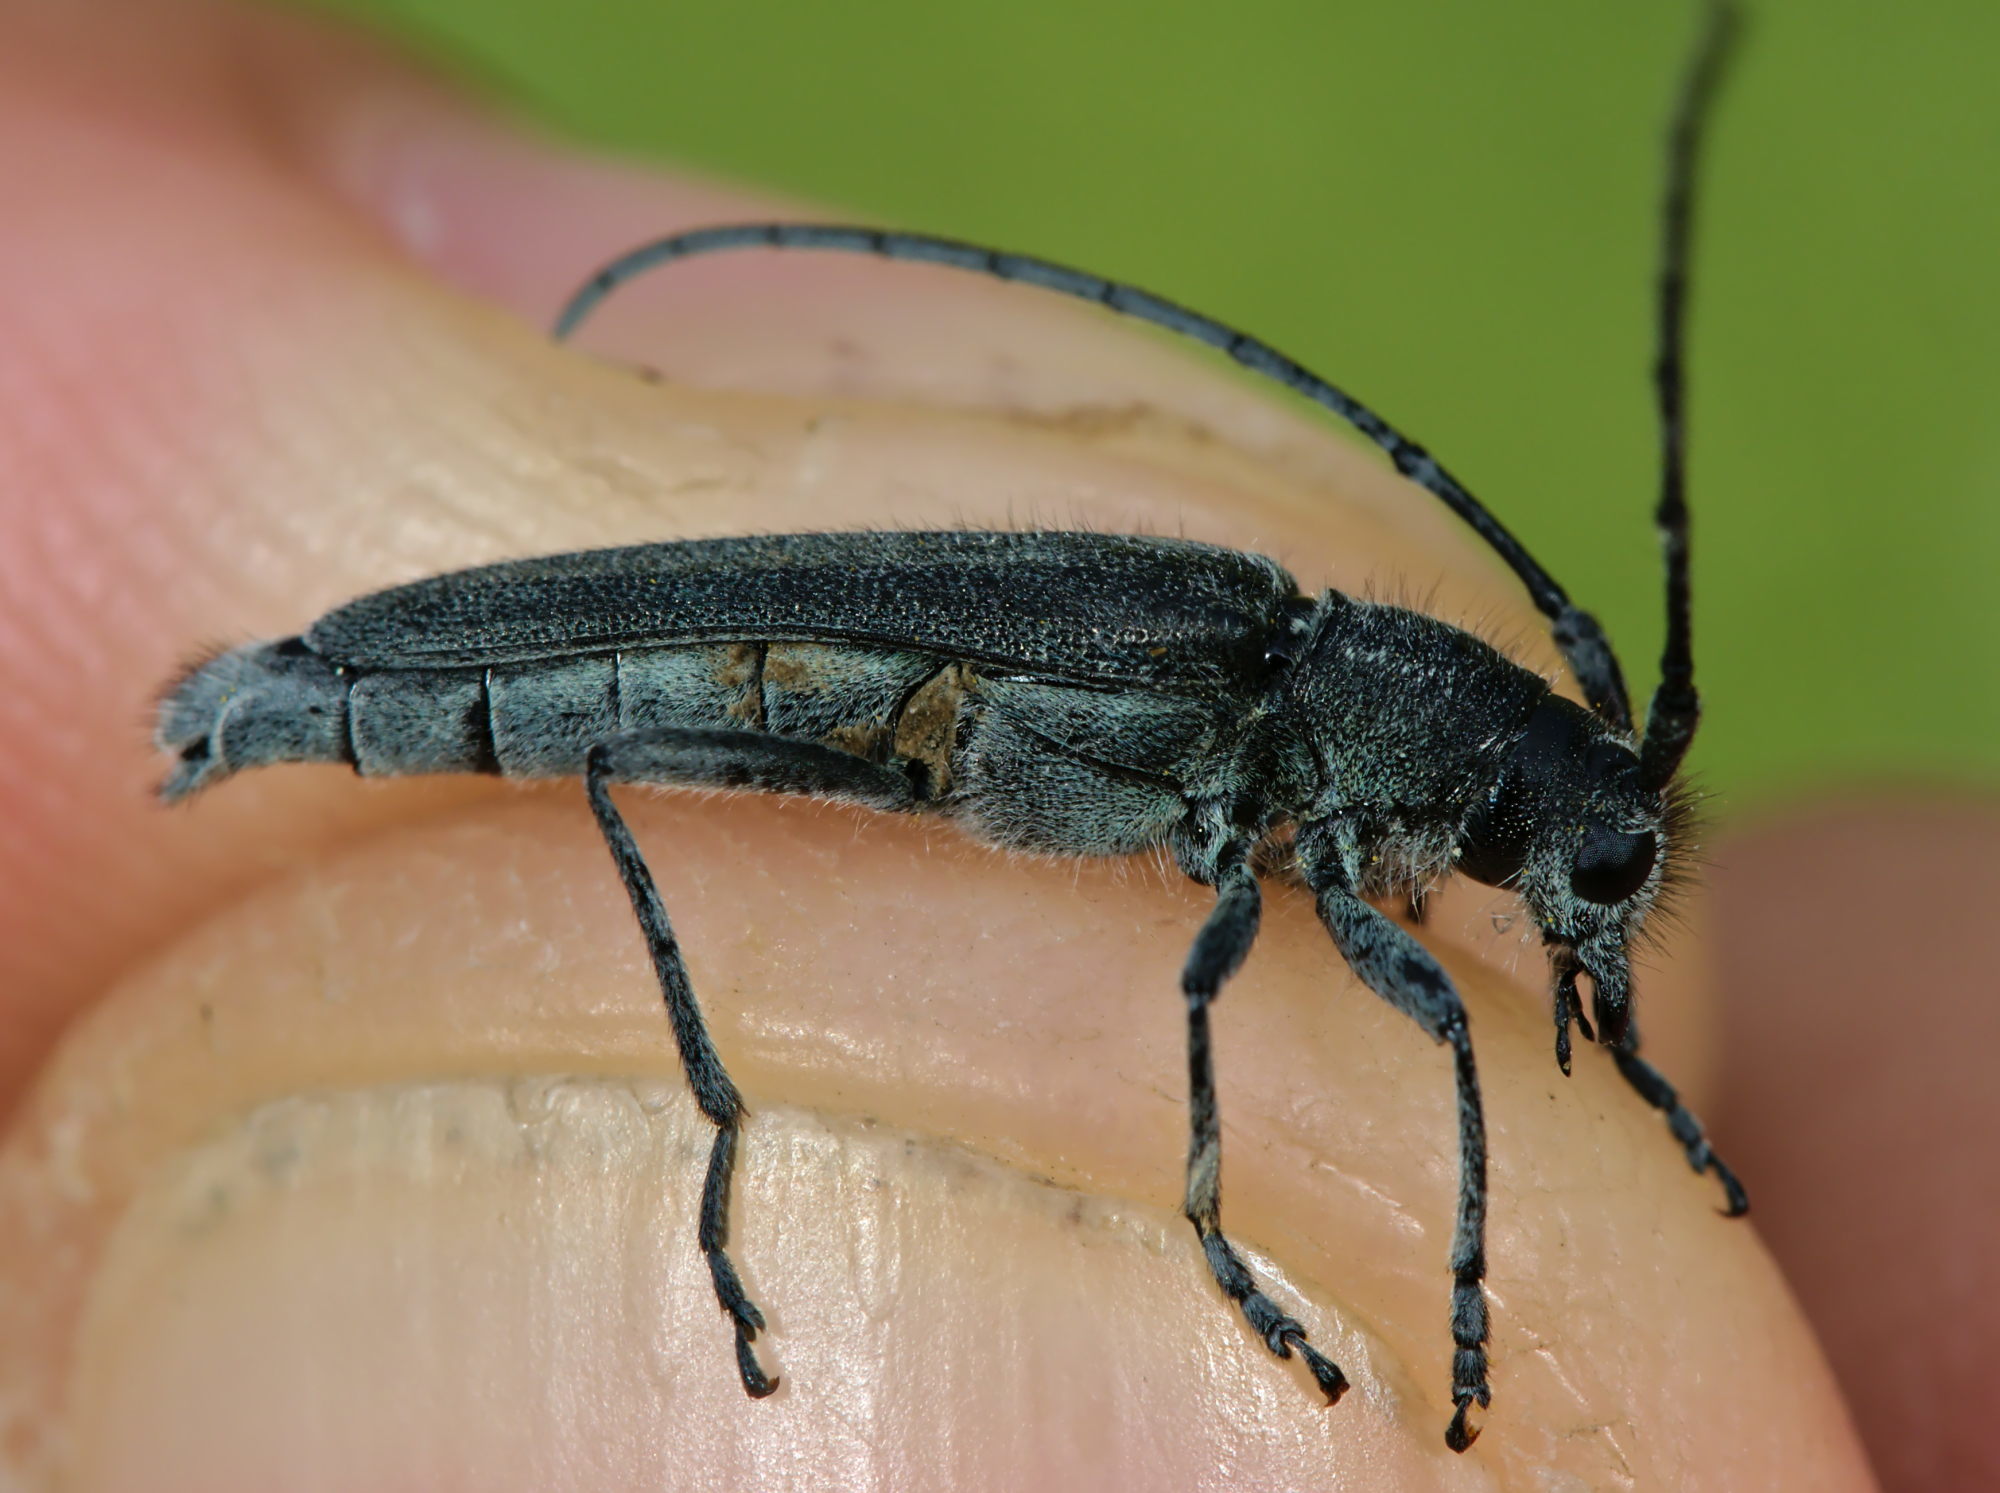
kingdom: Animalia
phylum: Arthropoda
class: Insecta
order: Coleoptera
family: Cerambycidae
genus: Phytoecia
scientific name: Phytoecia coerulescens
